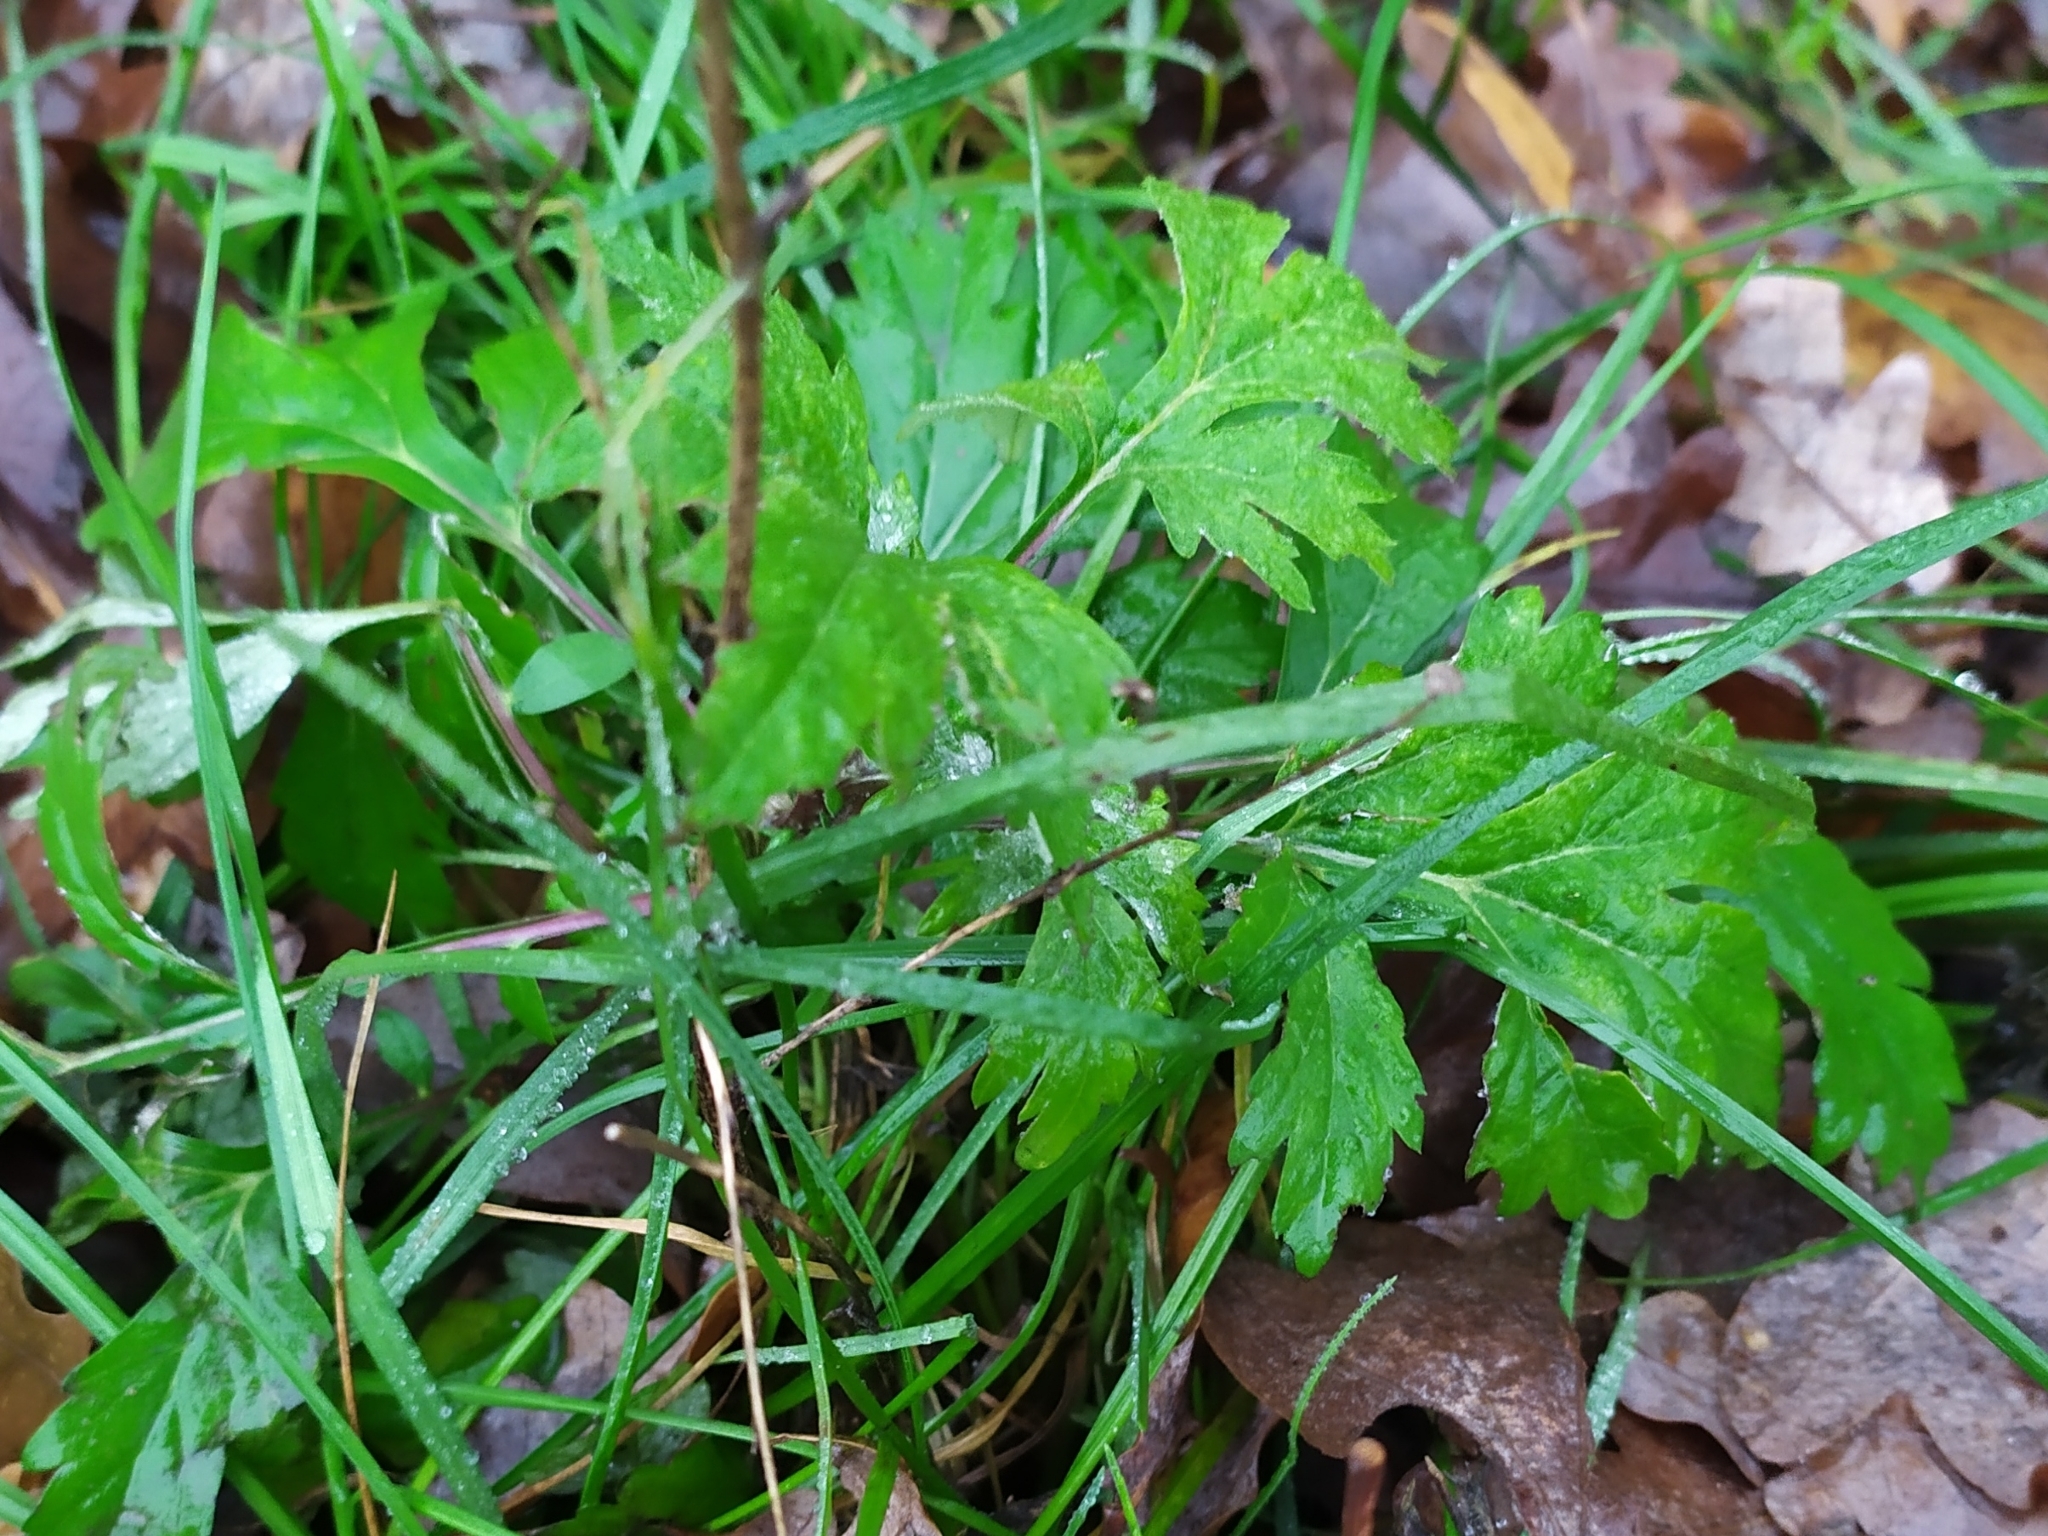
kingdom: Plantae
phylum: Tracheophyta
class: Magnoliopsida
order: Asterales
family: Asteraceae
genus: Artemisia
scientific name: Artemisia vulgaris
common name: Mugwort
